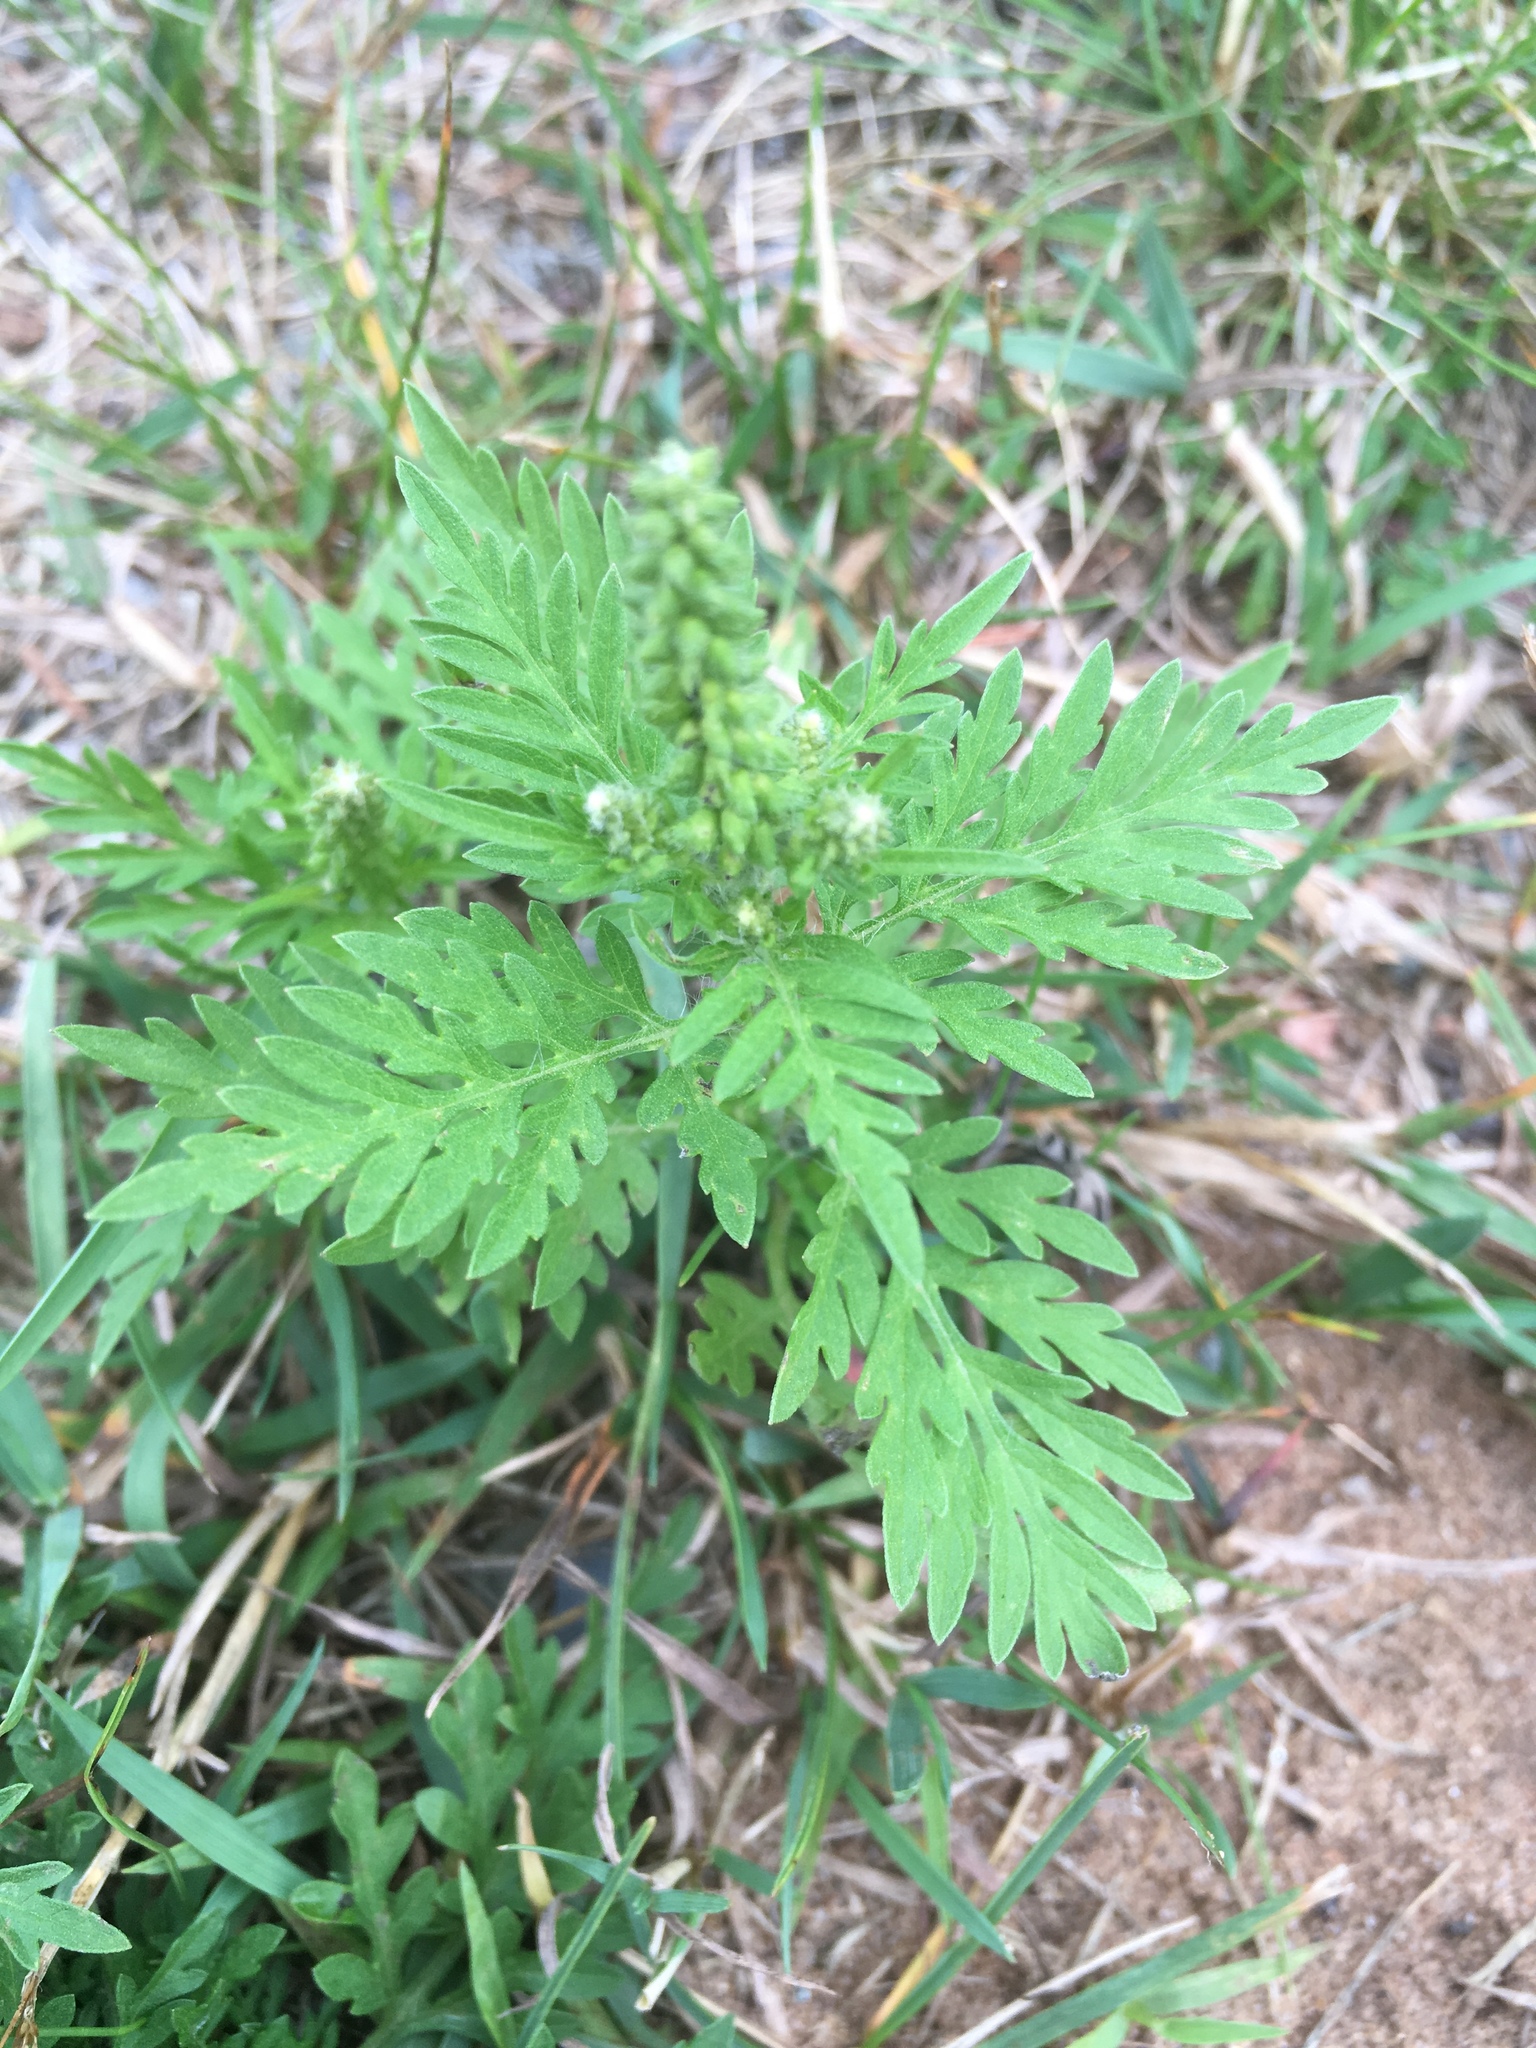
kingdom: Plantae
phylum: Tracheophyta
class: Magnoliopsida
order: Asterales
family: Asteraceae
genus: Ambrosia
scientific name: Ambrosia artemisiifolia
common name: Annual ragweed
